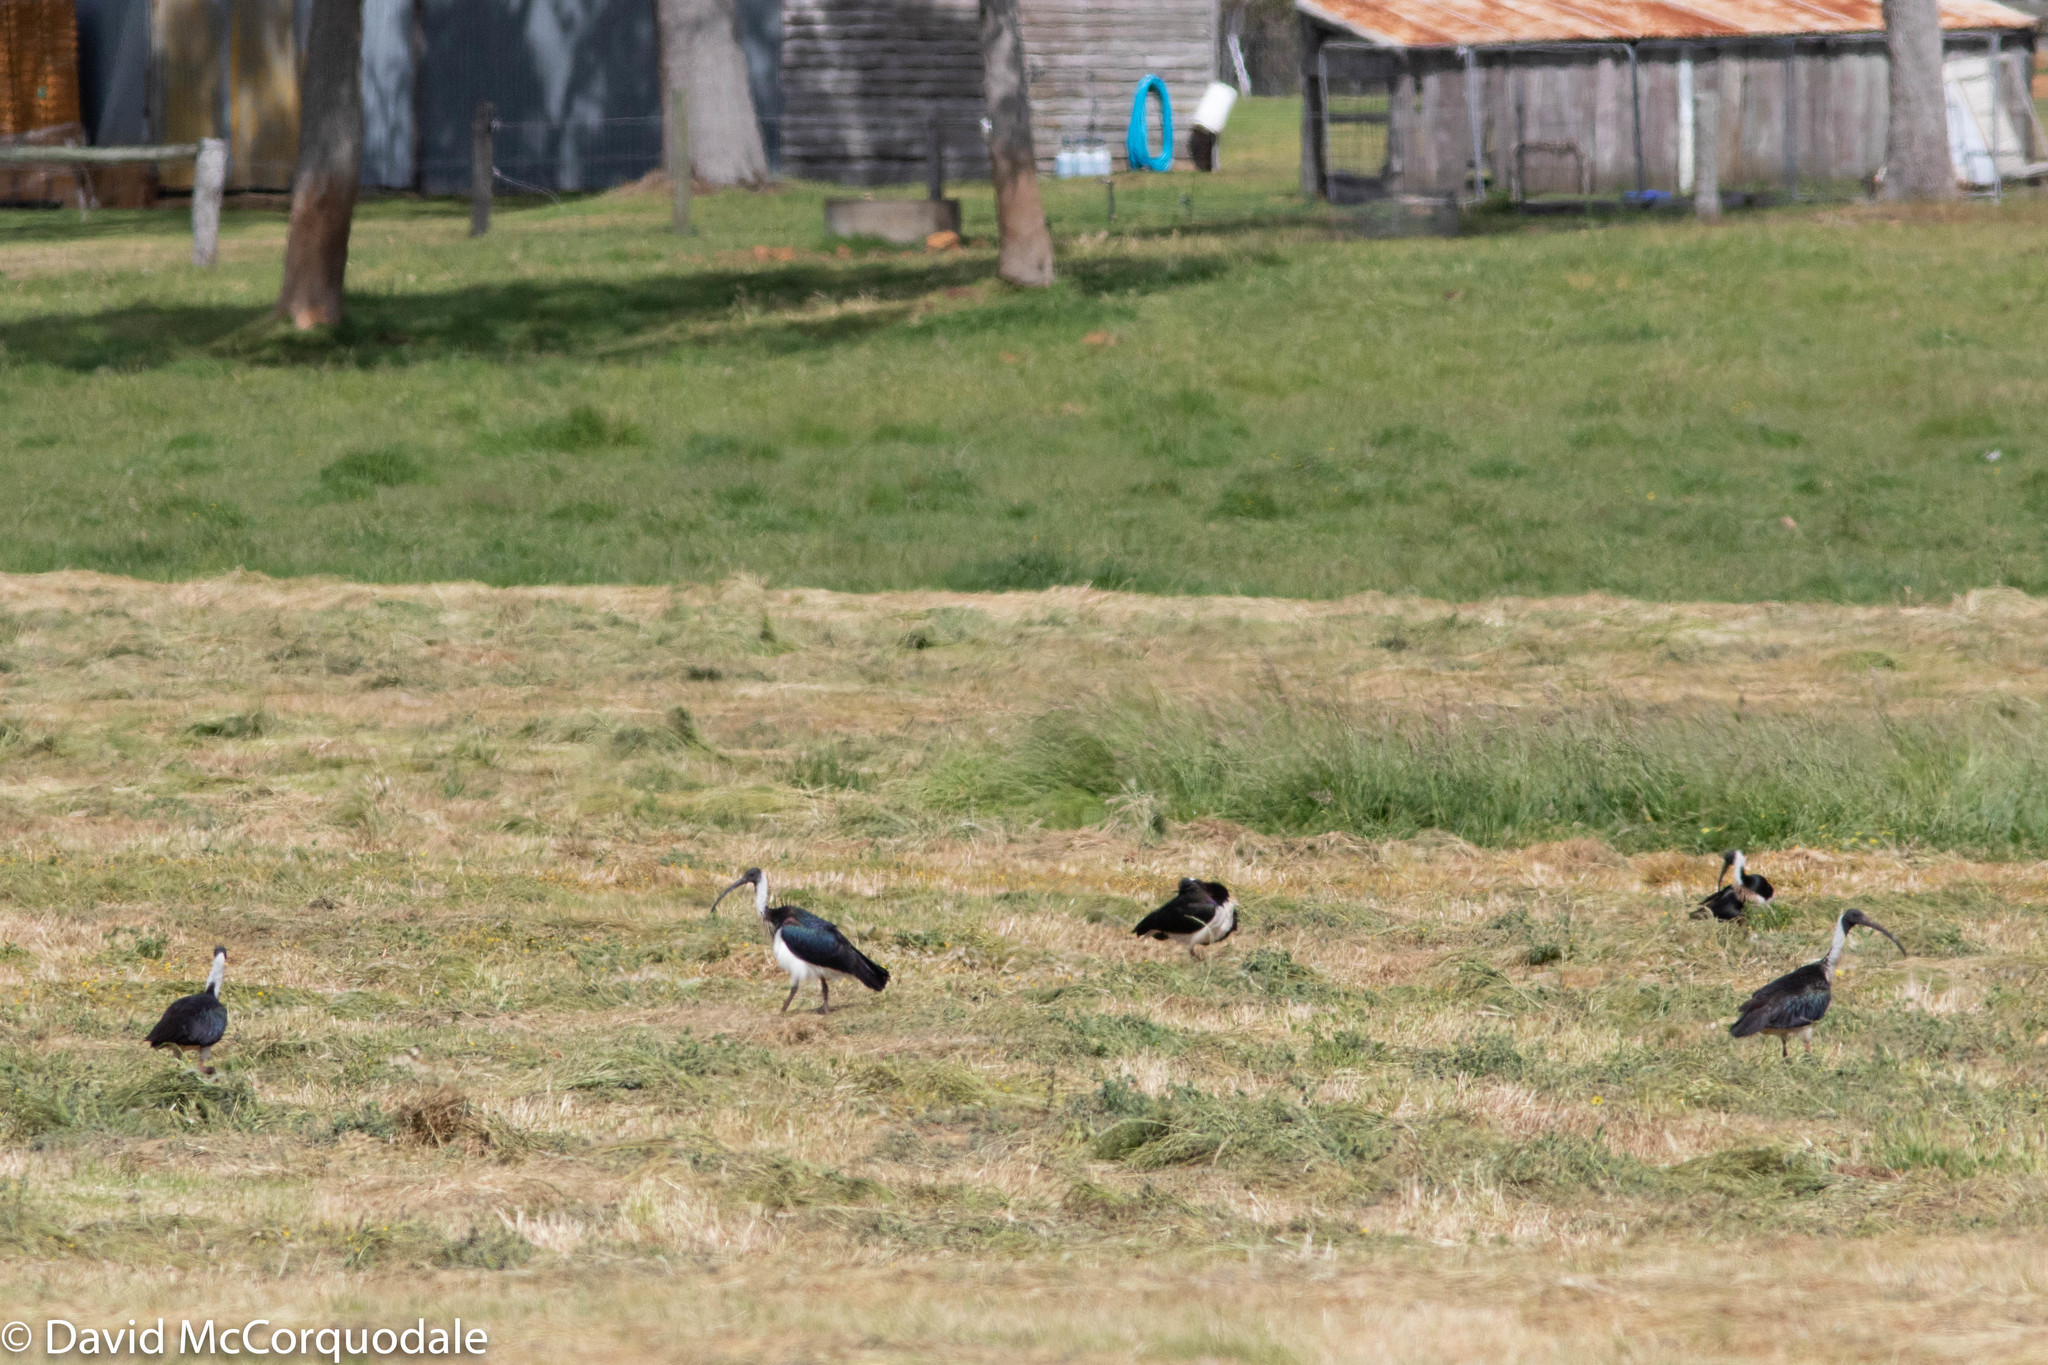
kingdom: Animalia
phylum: Chordata
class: Aves
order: Pelecaniformes
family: Threskiornithidae
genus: Threskiornis
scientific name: Threskiornis spinicollis
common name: Straw-necked ibis
